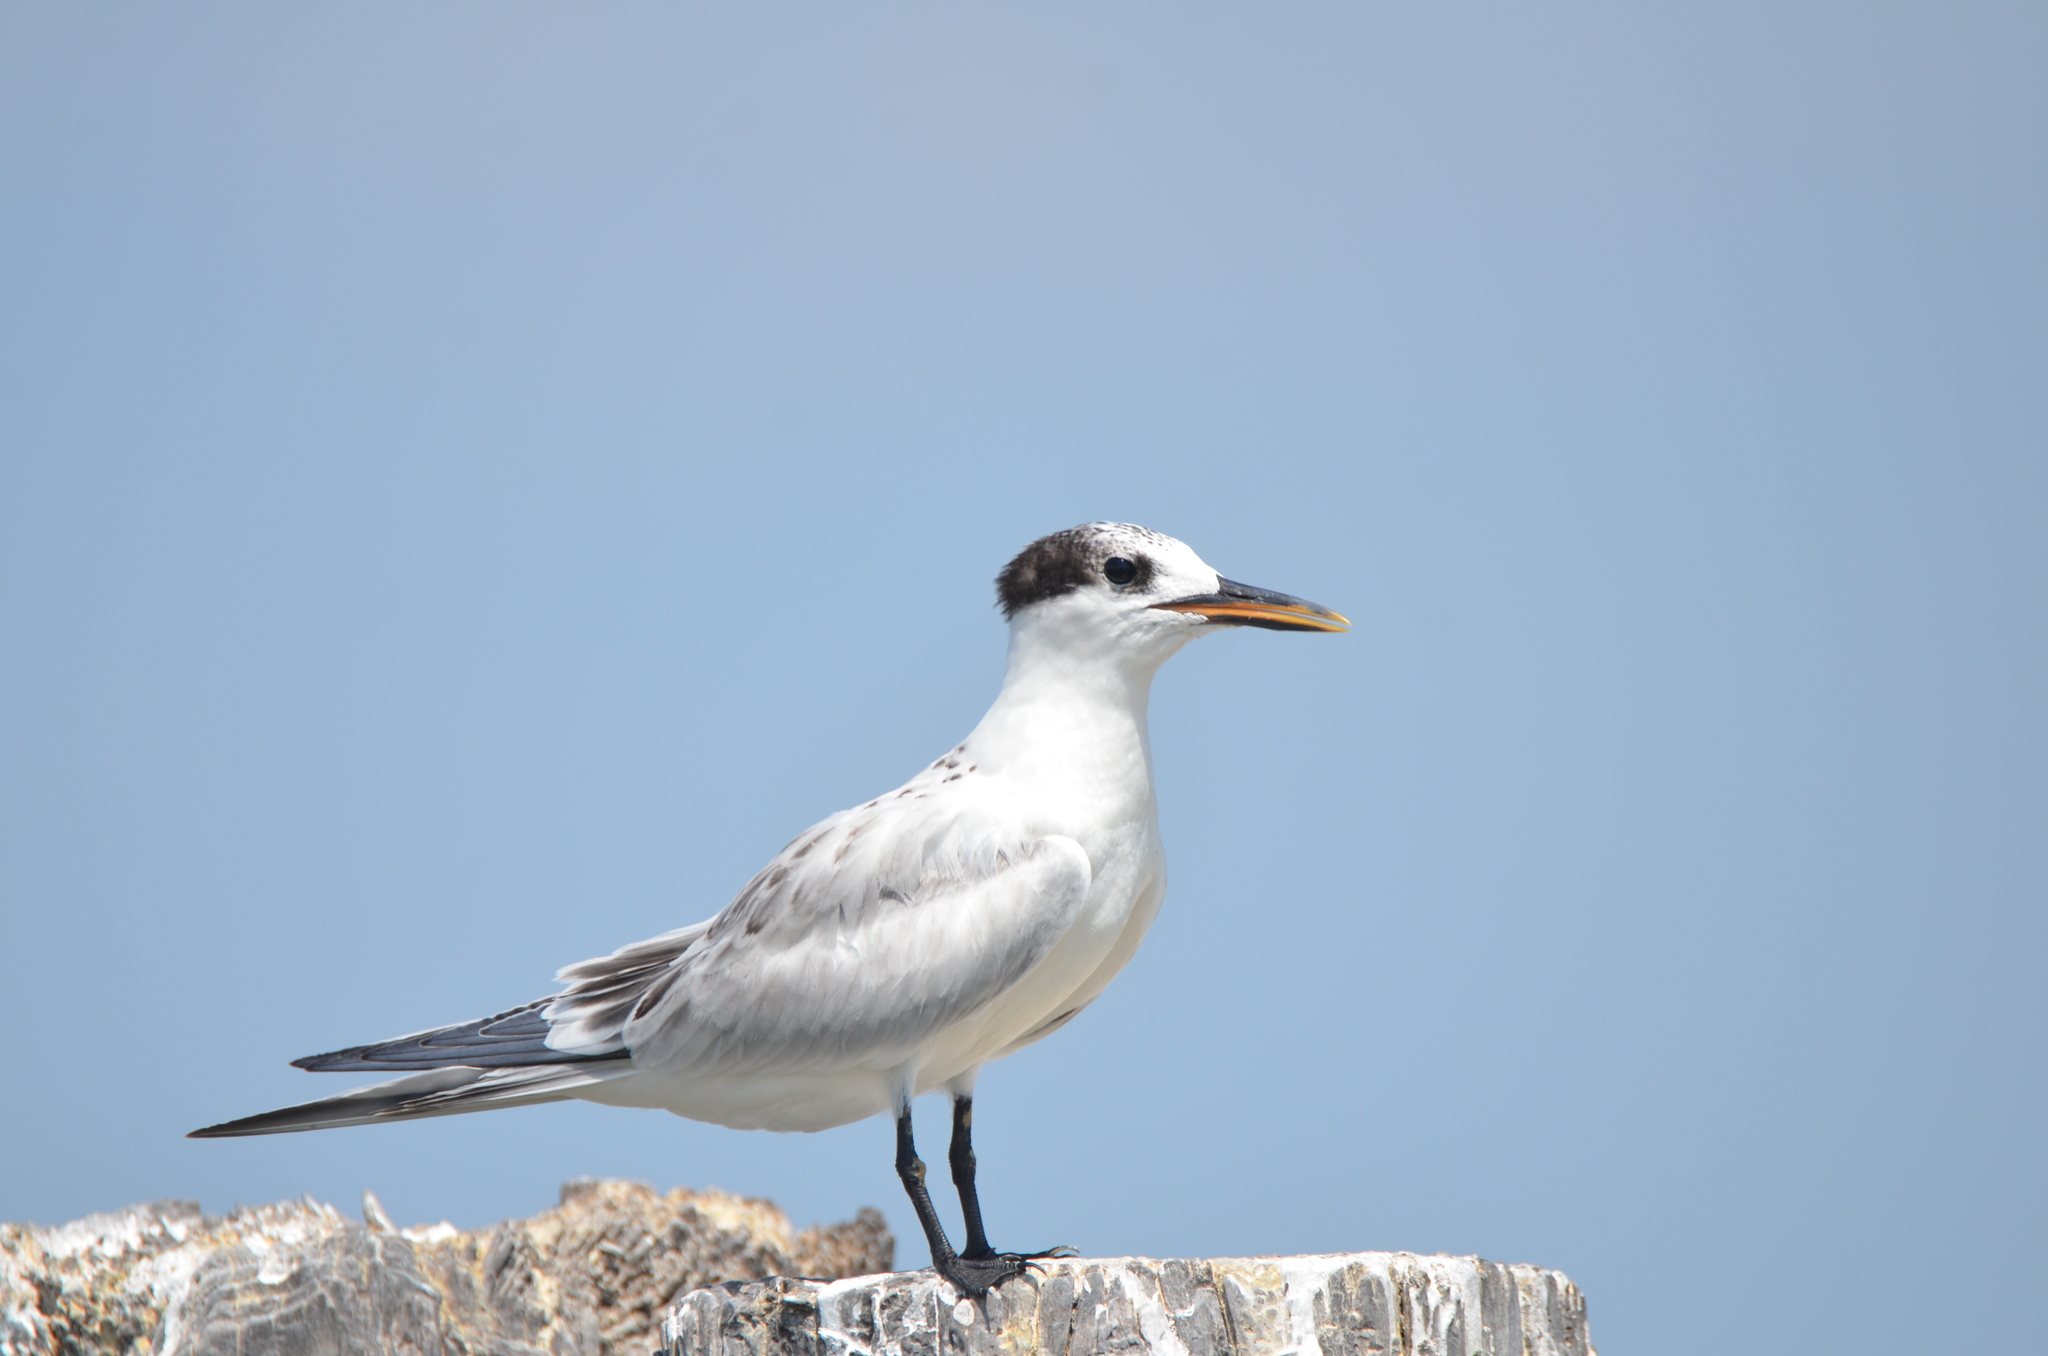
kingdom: Animalia
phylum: Chordata
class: Aves
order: Charadriiformes
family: Laridae
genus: Thalasseus
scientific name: Thalasseus sandvicensis
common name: Sandwich tern
